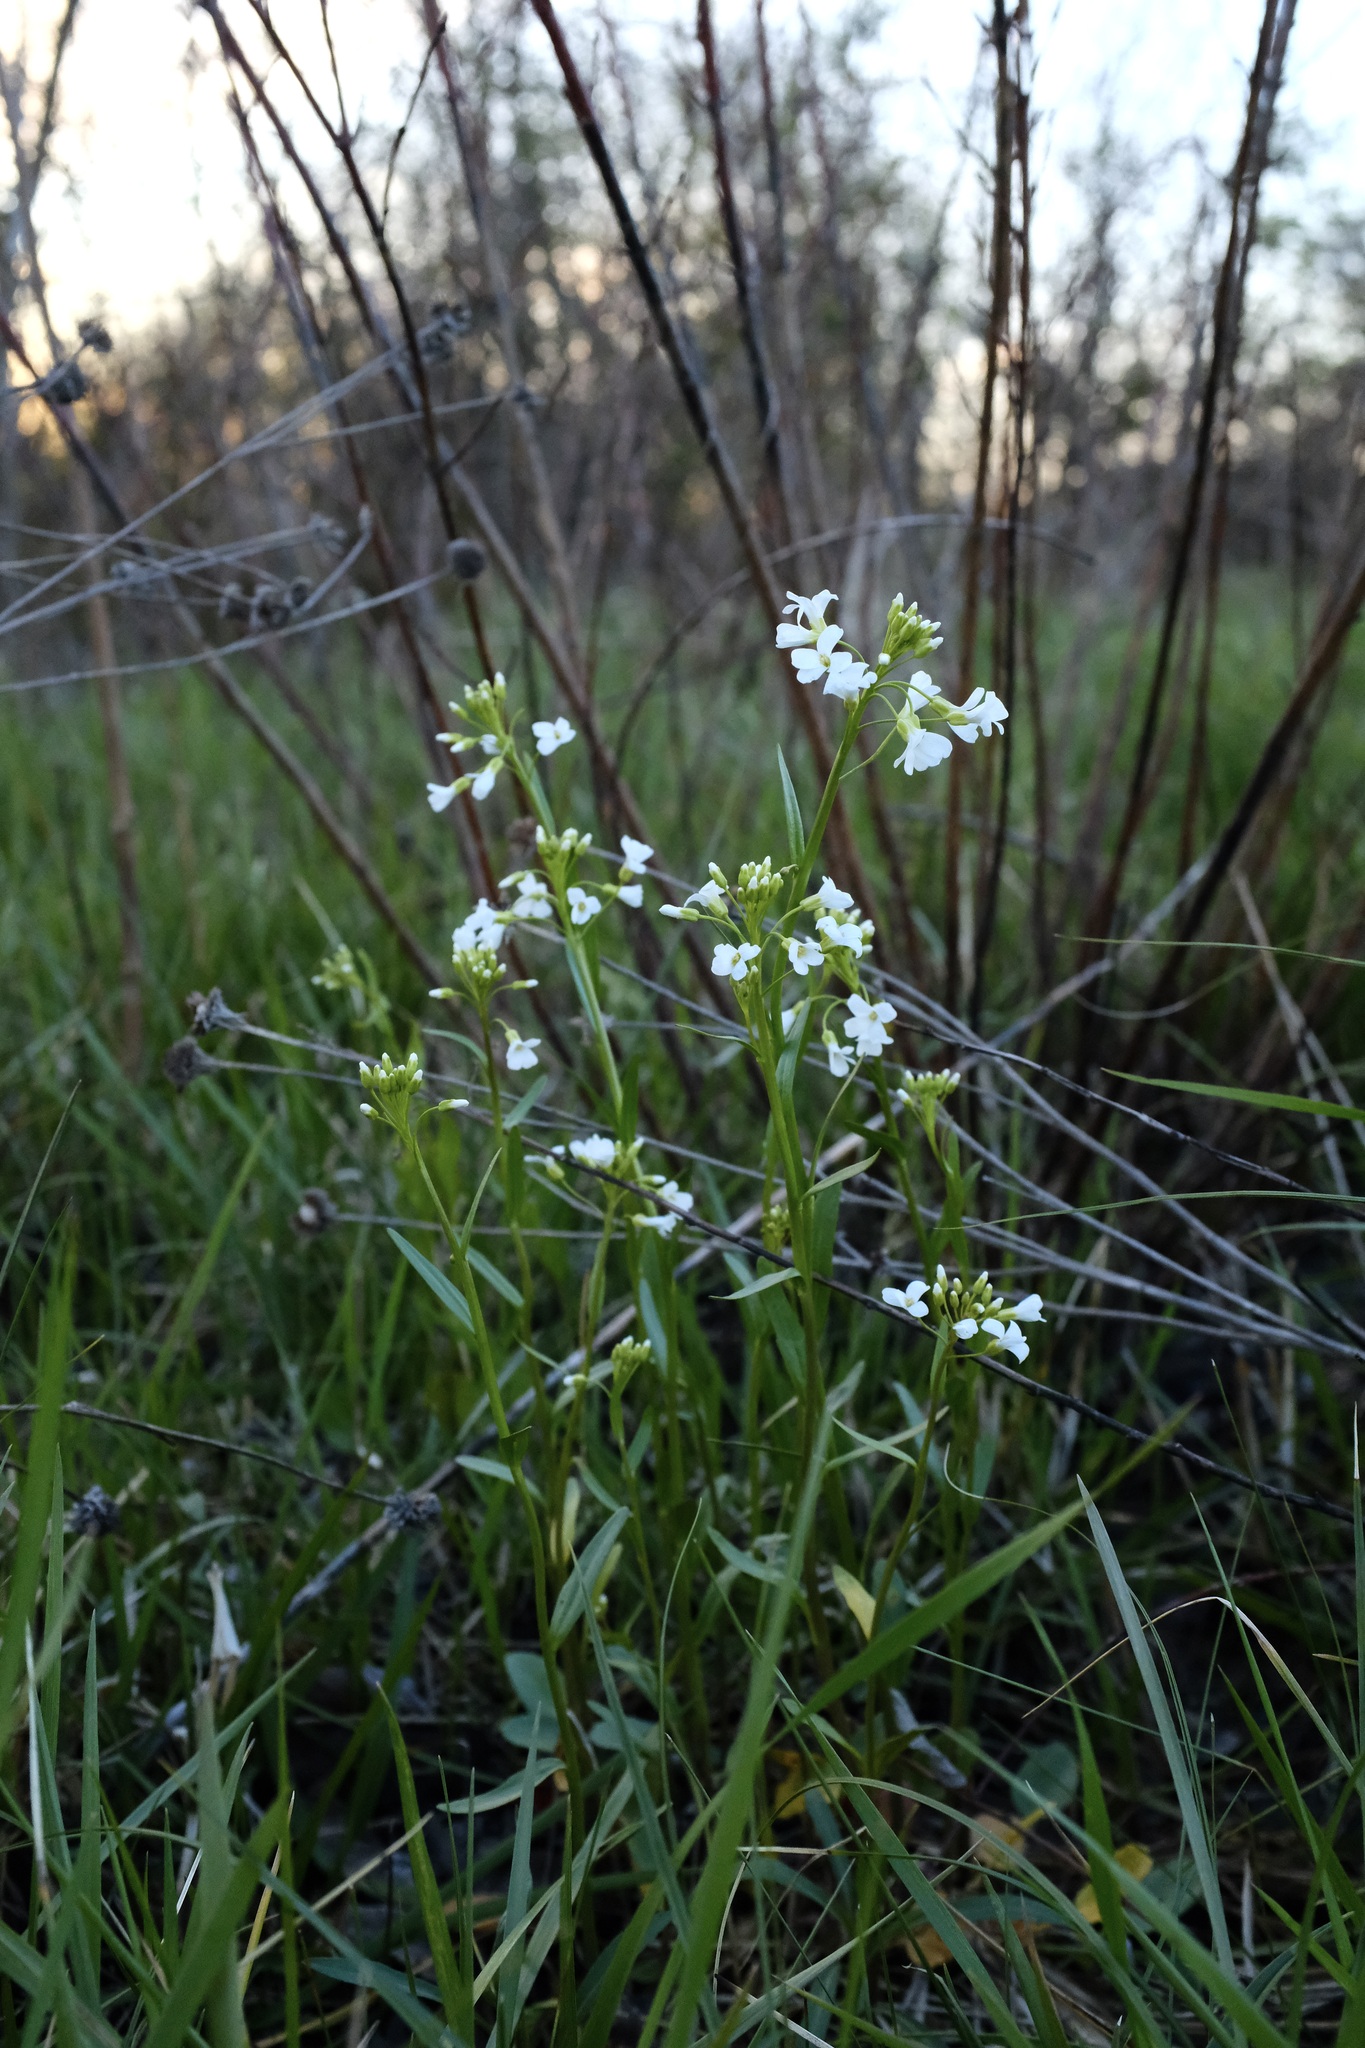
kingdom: Plantae
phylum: Tracheophyta
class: Magnoliopsida
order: Brassicales
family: Brassicaceae
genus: Cardamine
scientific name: Cardamine bulbosa
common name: Spring cress
